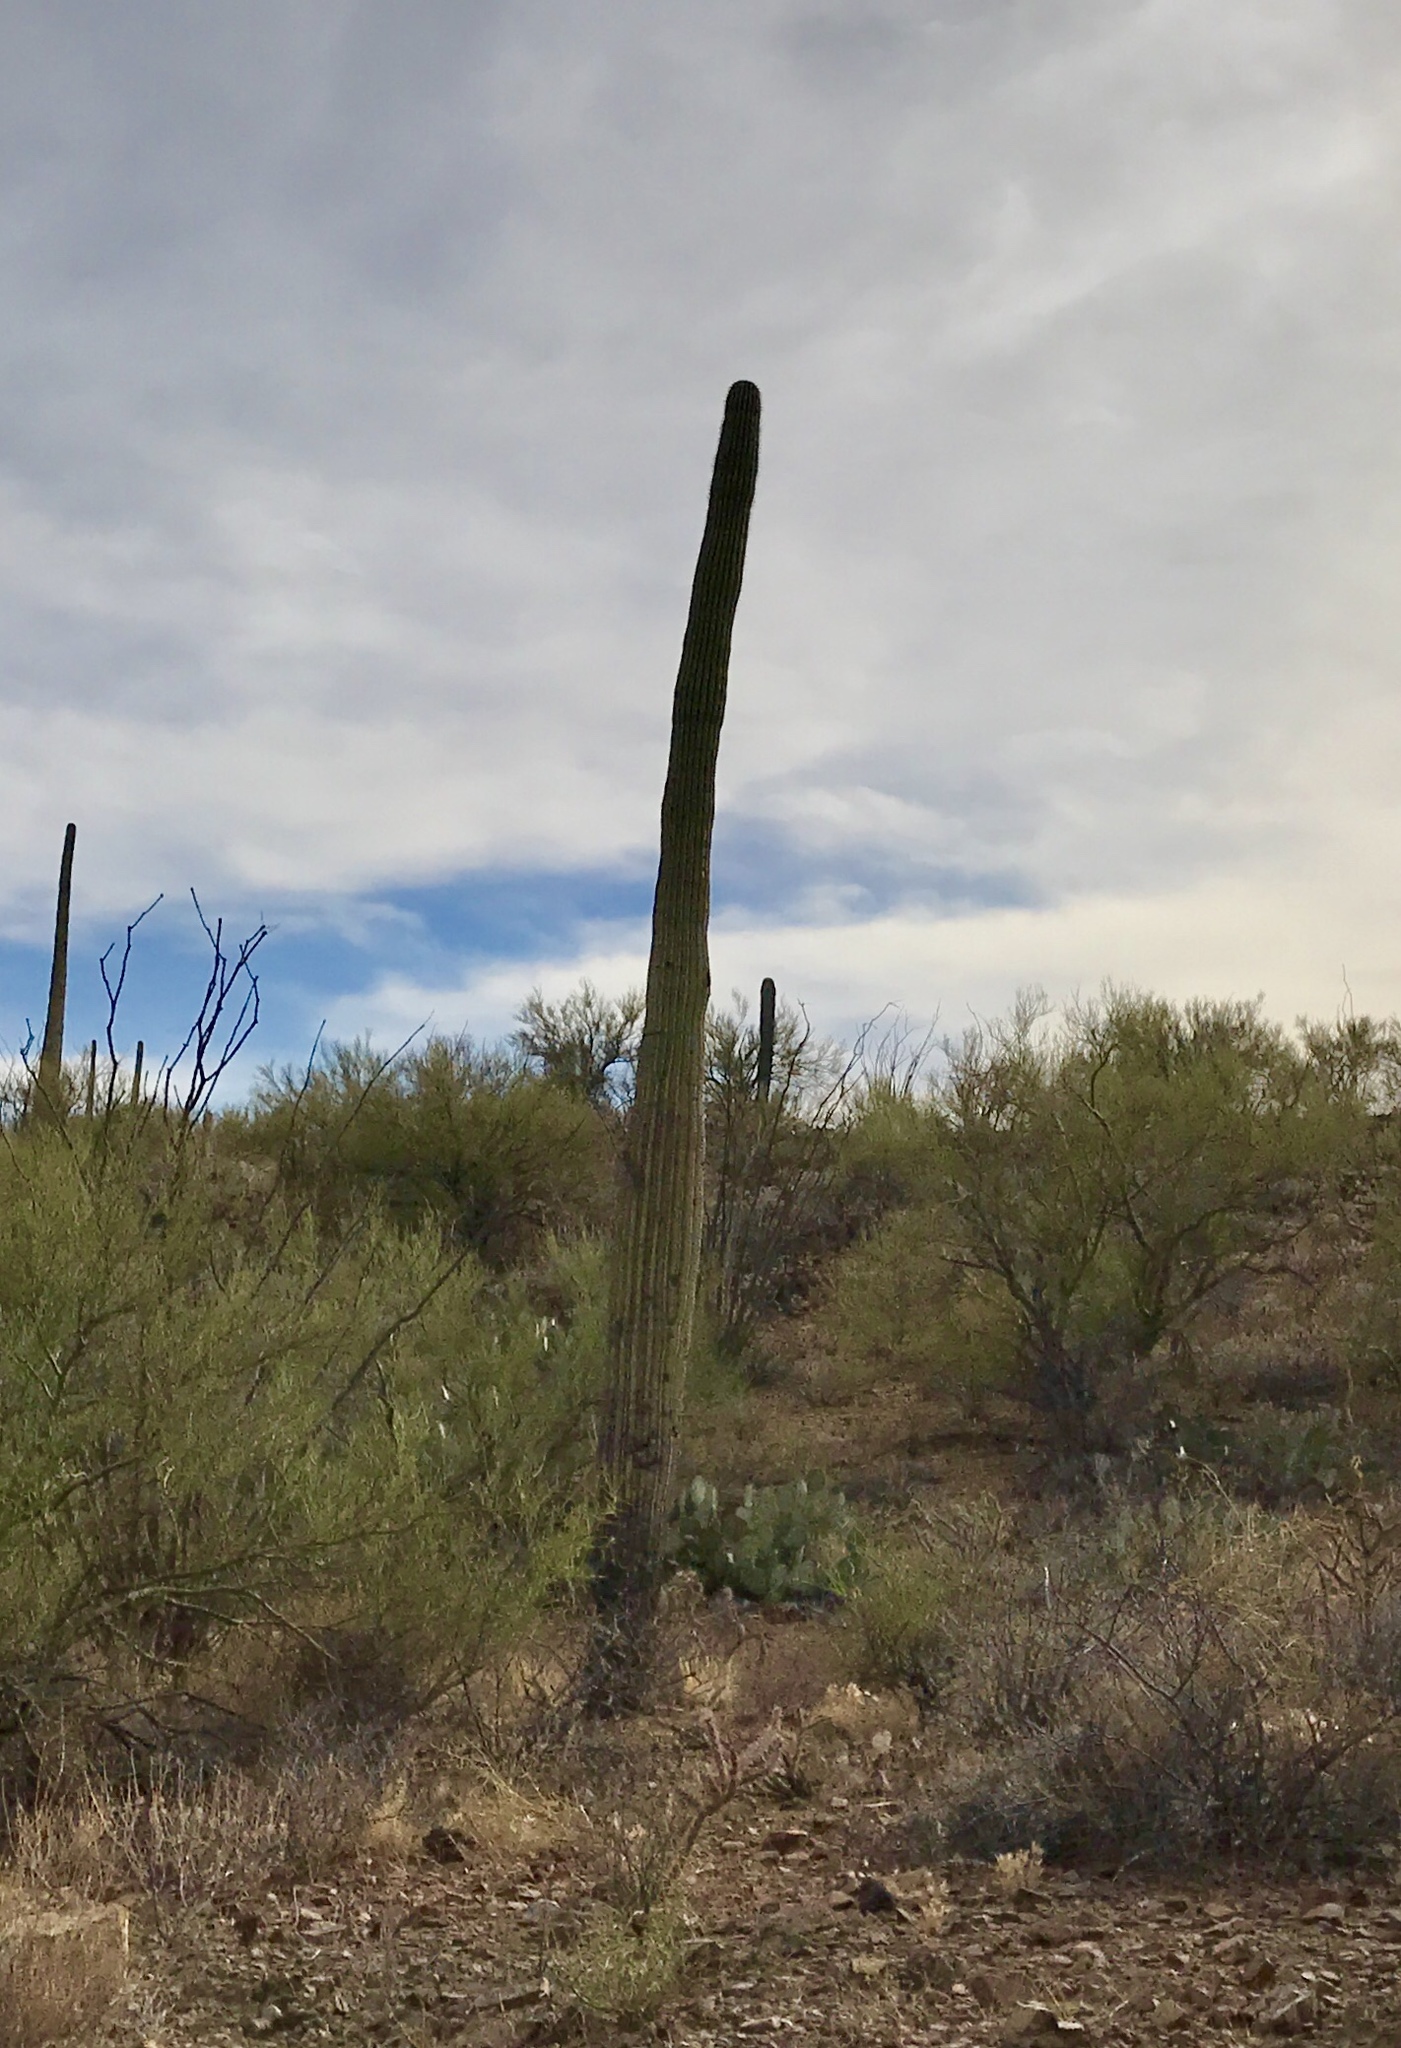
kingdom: Plantae
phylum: Tracheophyta
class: Magnoliopsida
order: Caryophyllales
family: Cactaceae
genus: Carnegiea
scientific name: Carnegiea gigantea
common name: Saguaro
